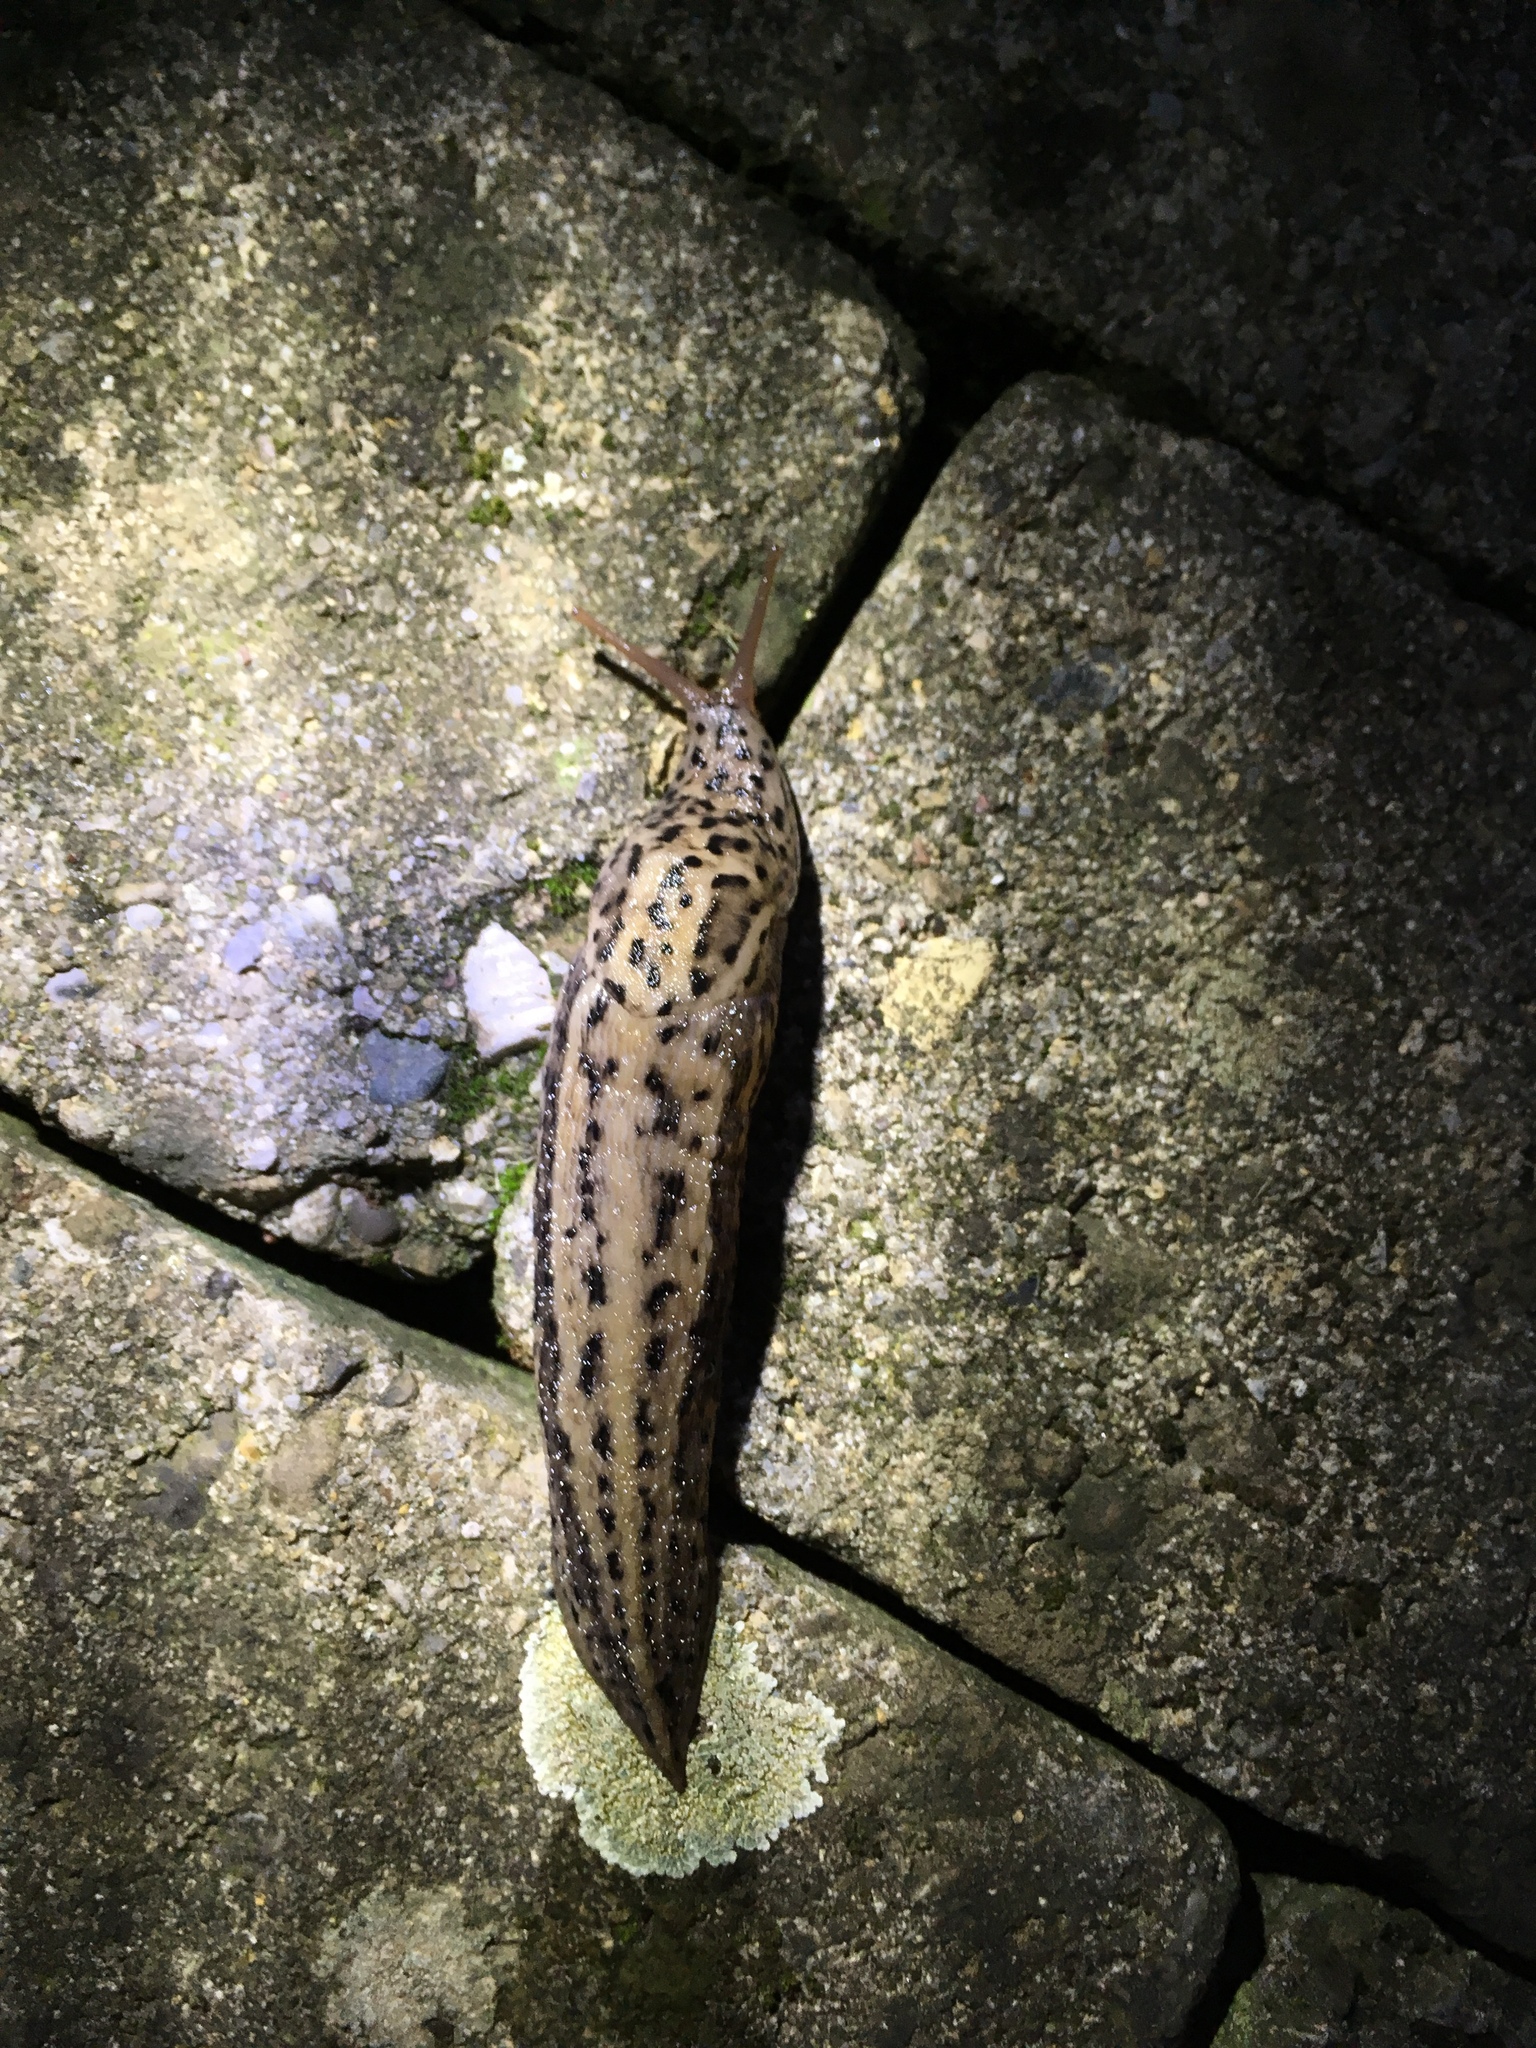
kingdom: Animalia
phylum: Mollusca
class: Gastropoda
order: Stylommatophora
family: Limacidae
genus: Limax
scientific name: Limax maximus
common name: Great grey slug
